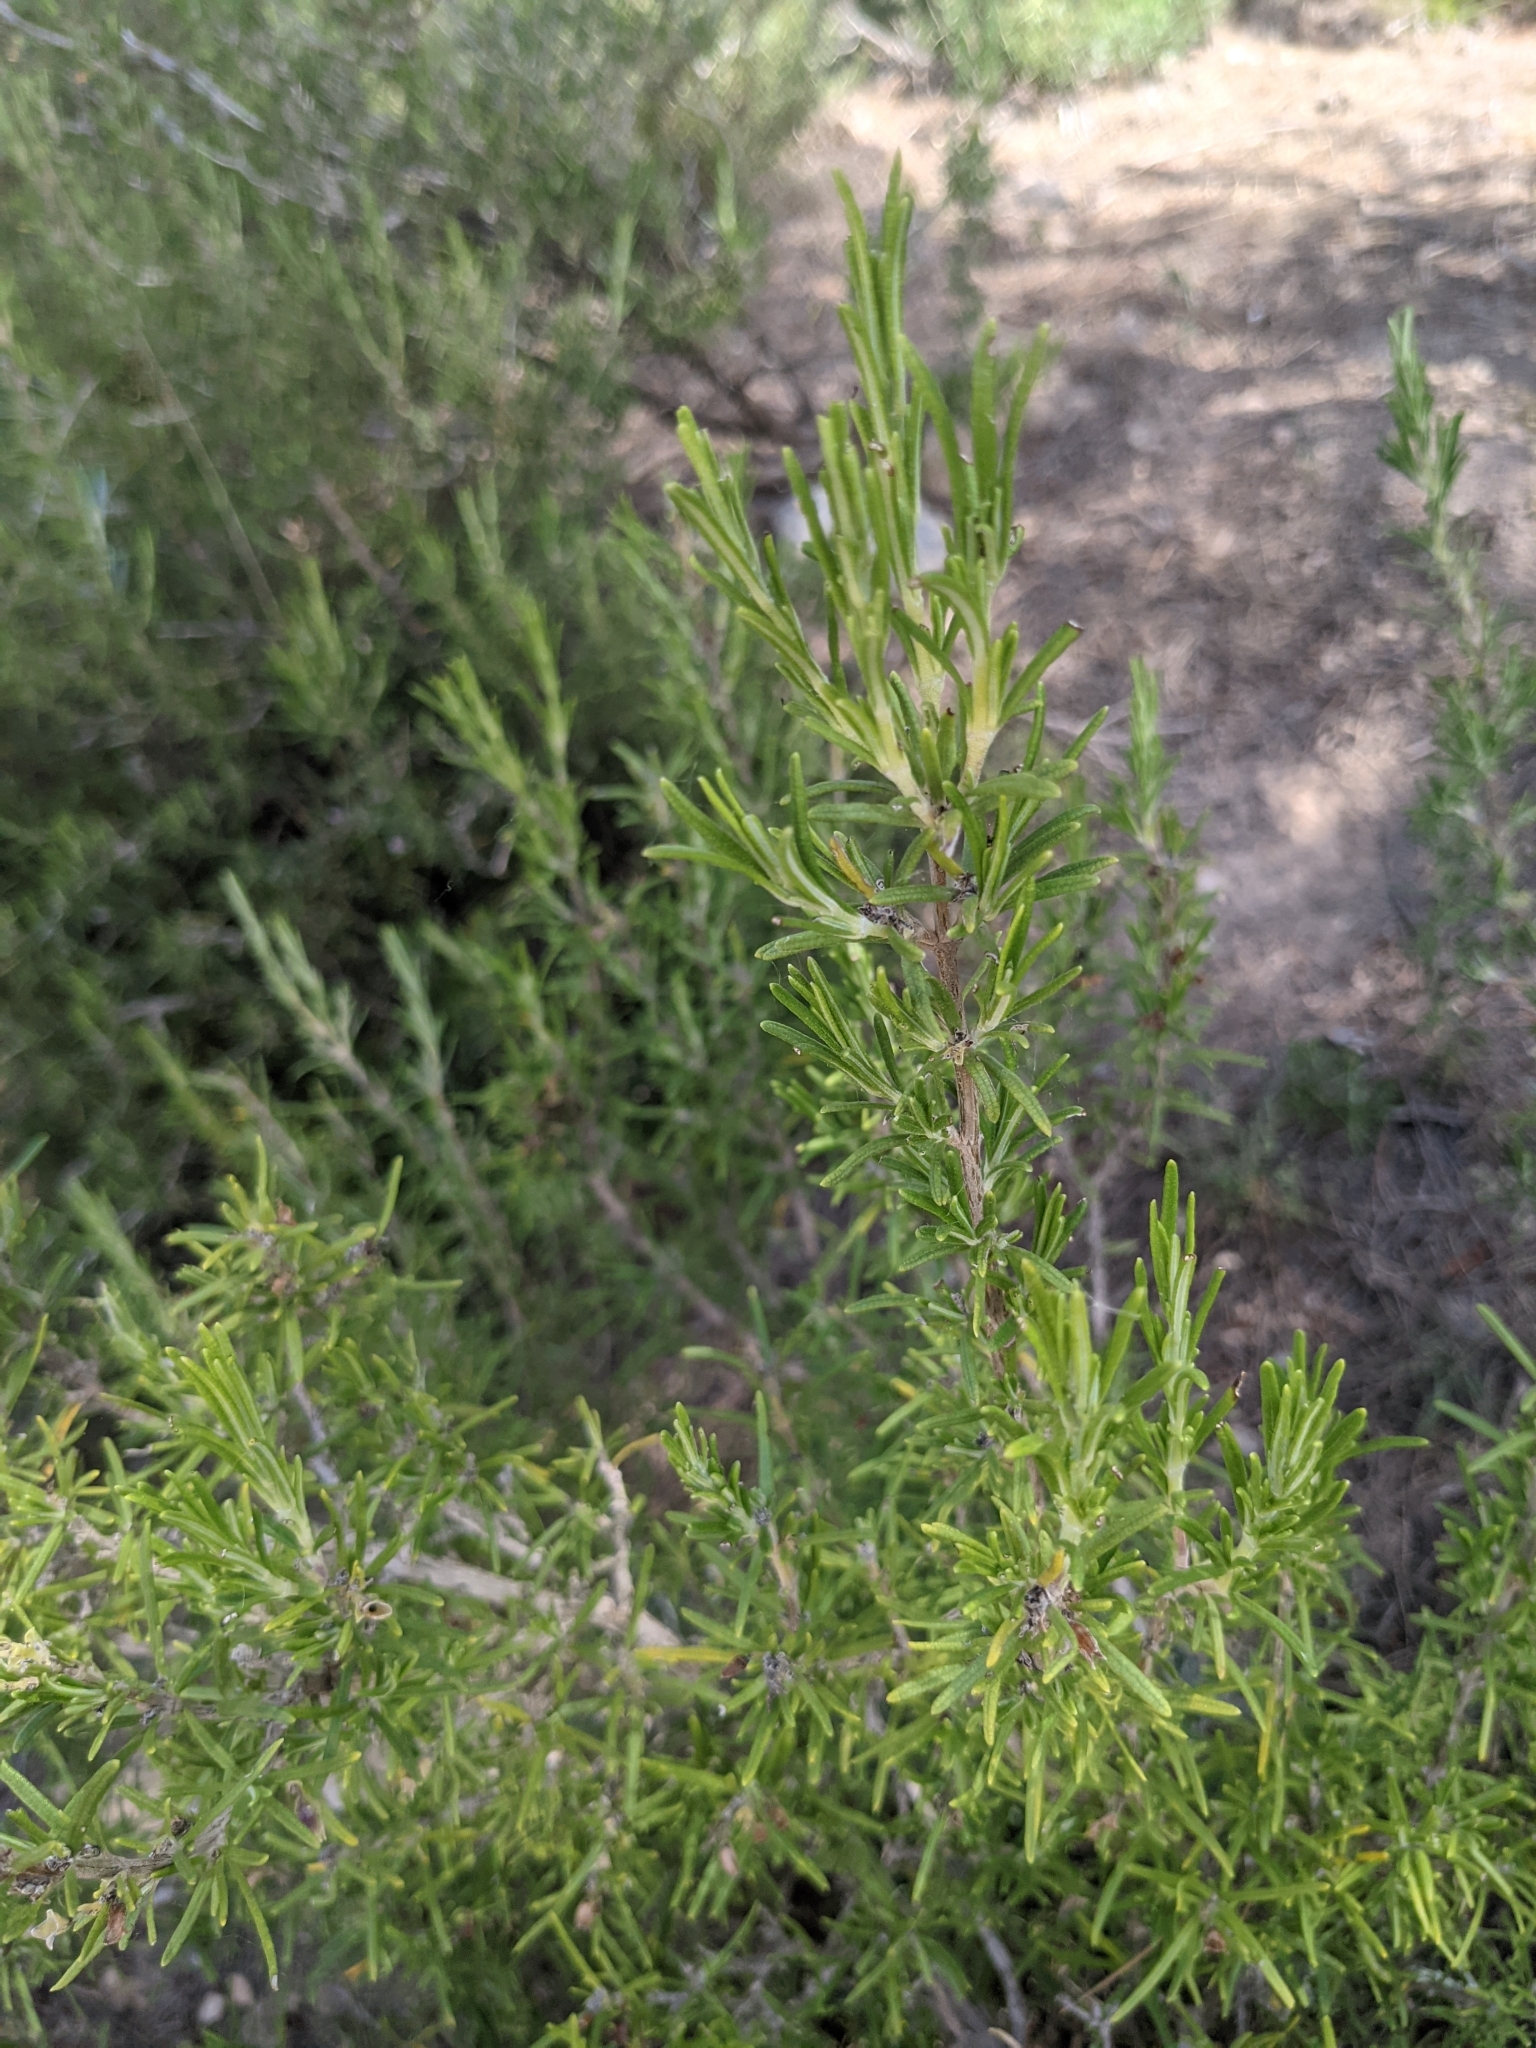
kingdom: Plantae
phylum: Tracheophyta
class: Magnoliopsida
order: Lamiales
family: Lamiaceae
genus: Salvia
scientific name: Salvia rosmarinus
